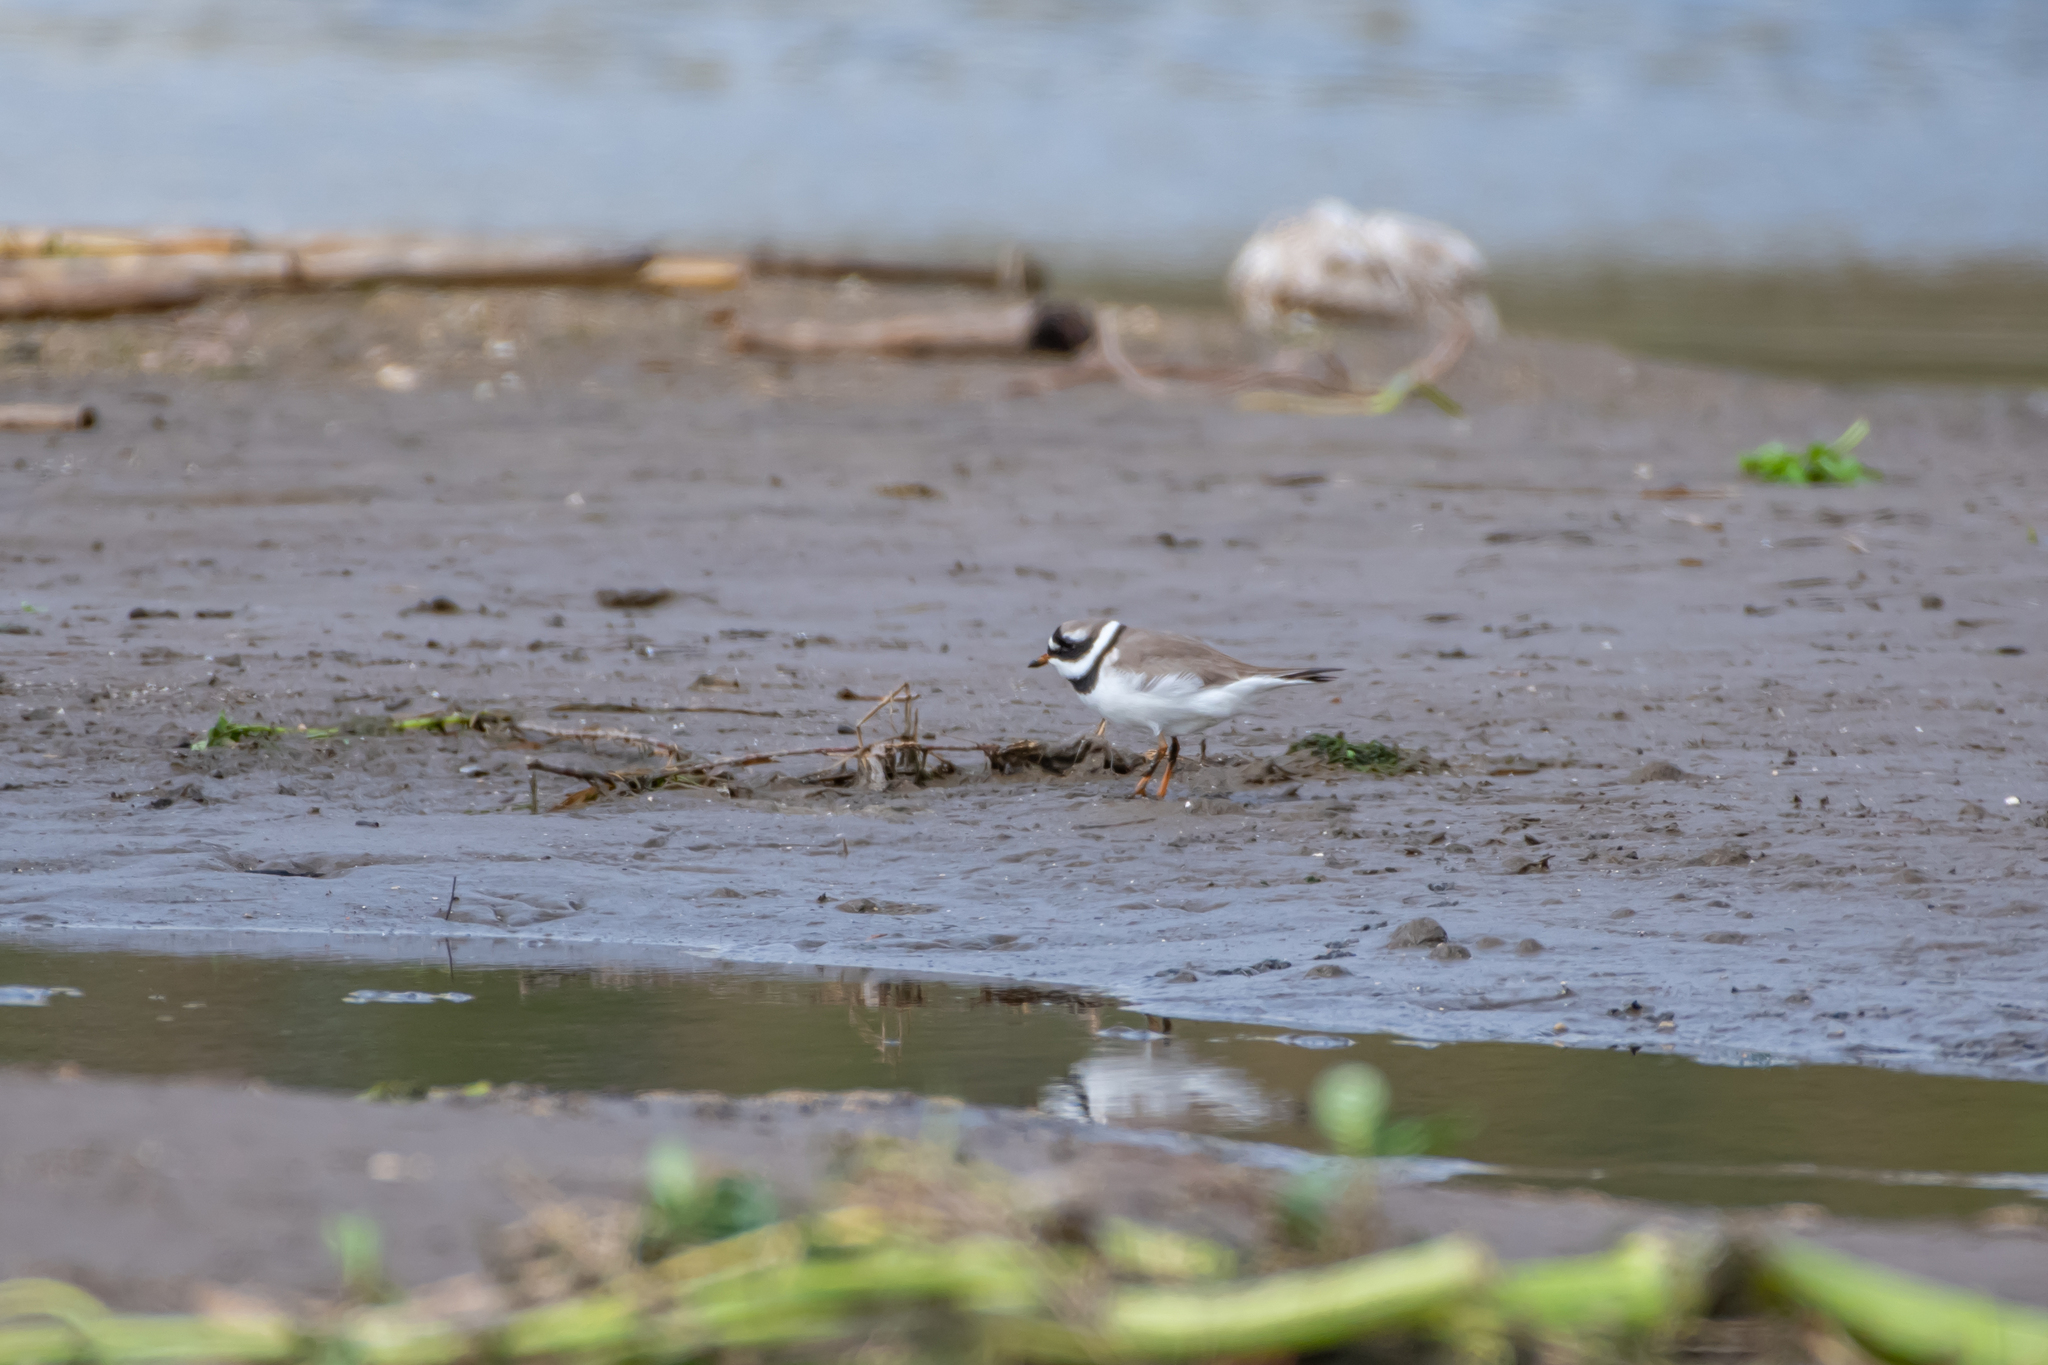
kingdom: Animalia
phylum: Chordata
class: Aves
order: Charadriiformes
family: Charadriidae
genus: Charadrius
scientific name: Charadrius hiaticula
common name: Common ringed plover
